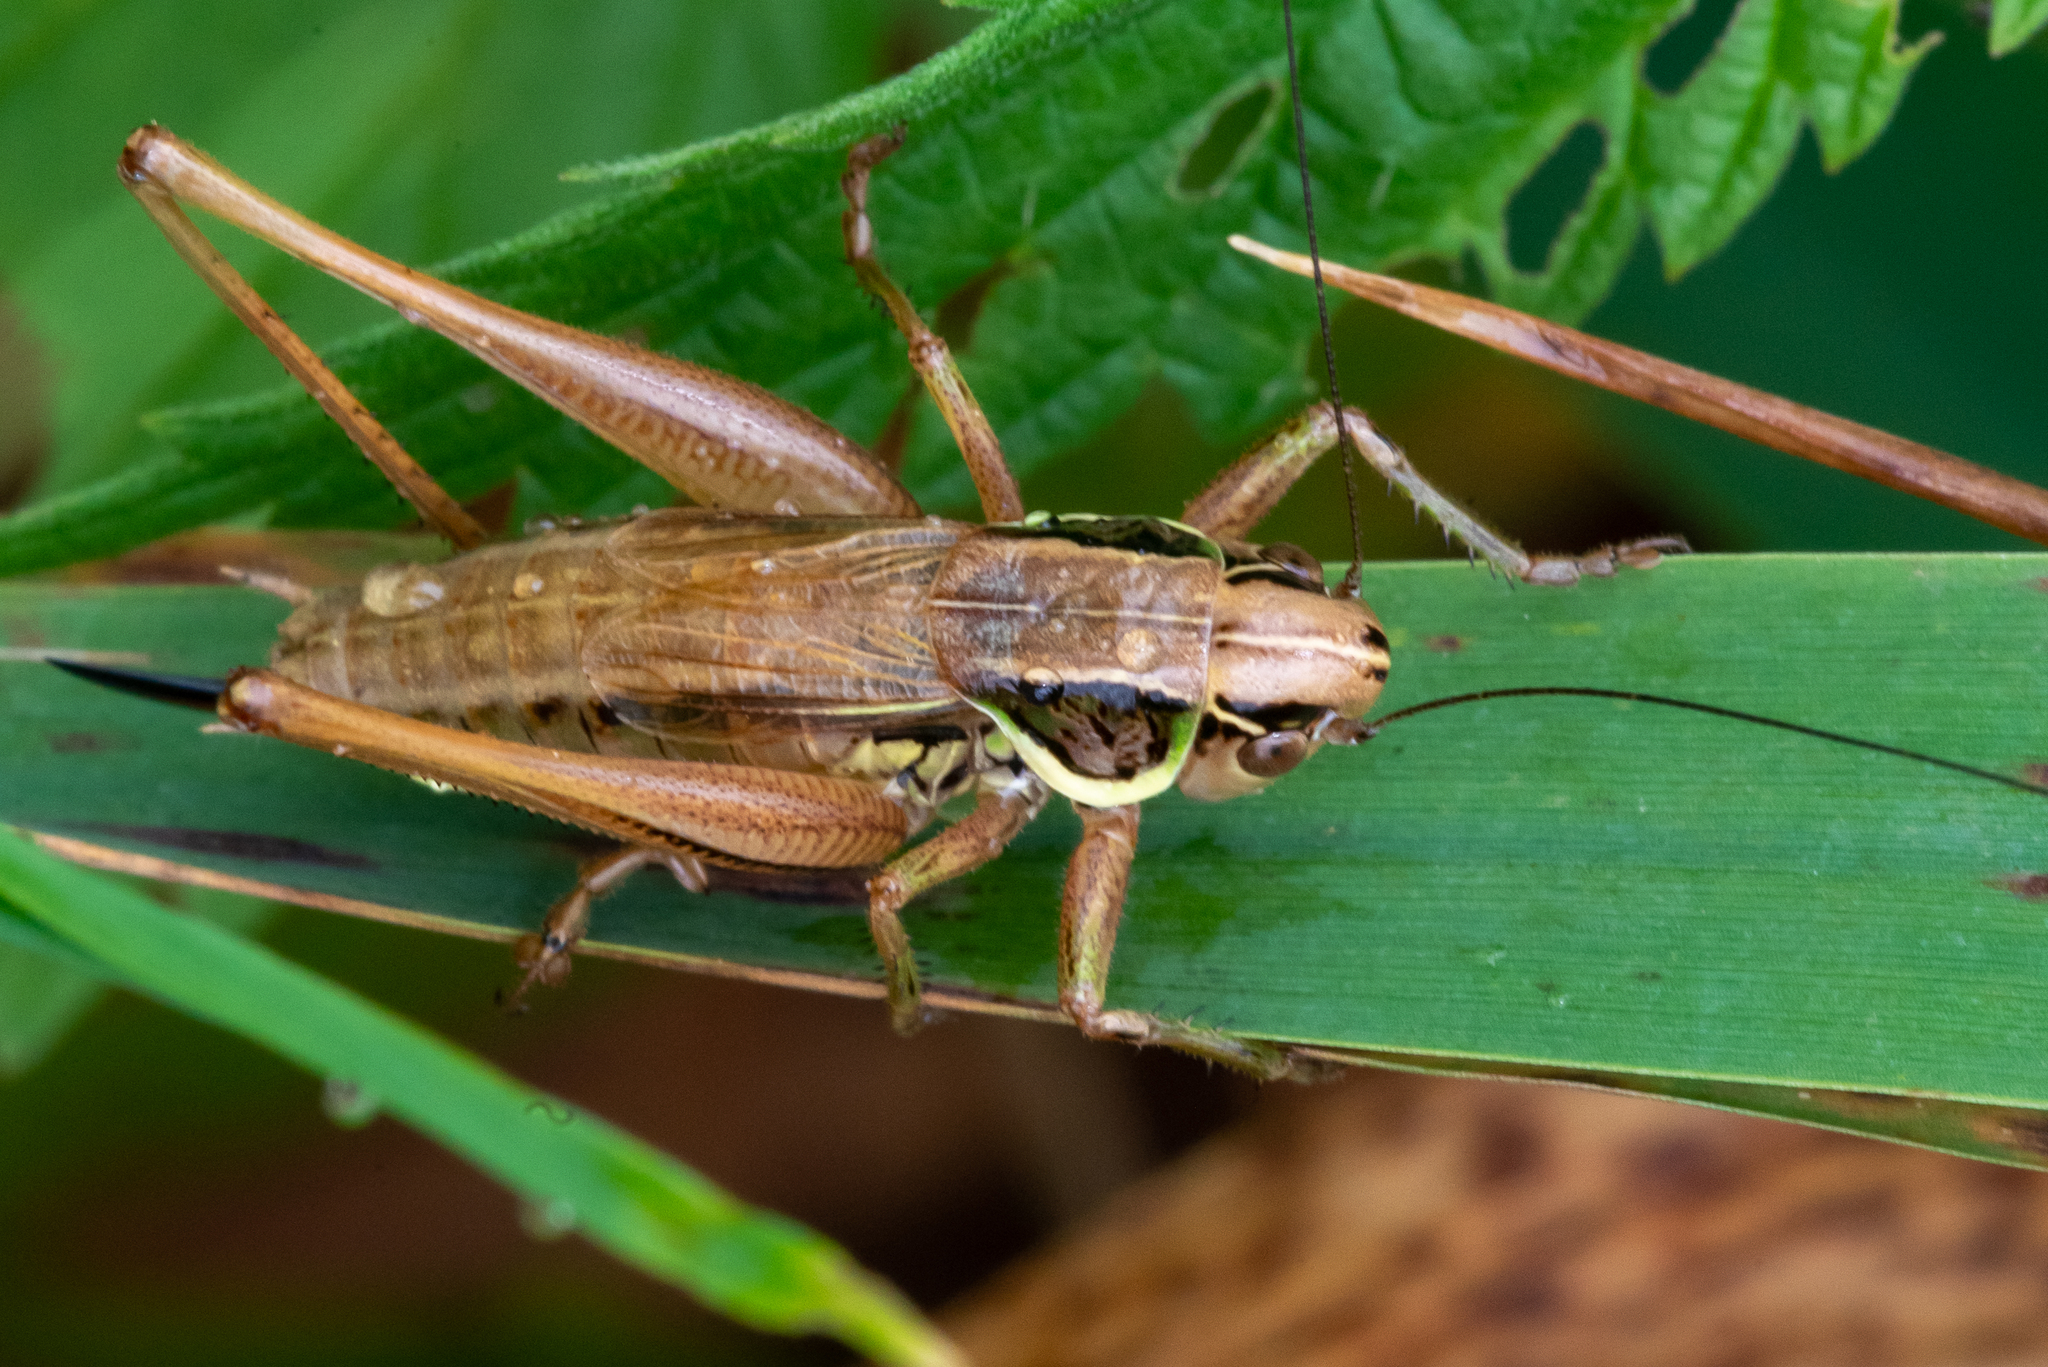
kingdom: Animalia
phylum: Arthropoda
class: Insecta
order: Orthoptera
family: Tettigoniidae
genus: Roeseliana
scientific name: Roeseliana roeselii
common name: Roesel's bush cricket
